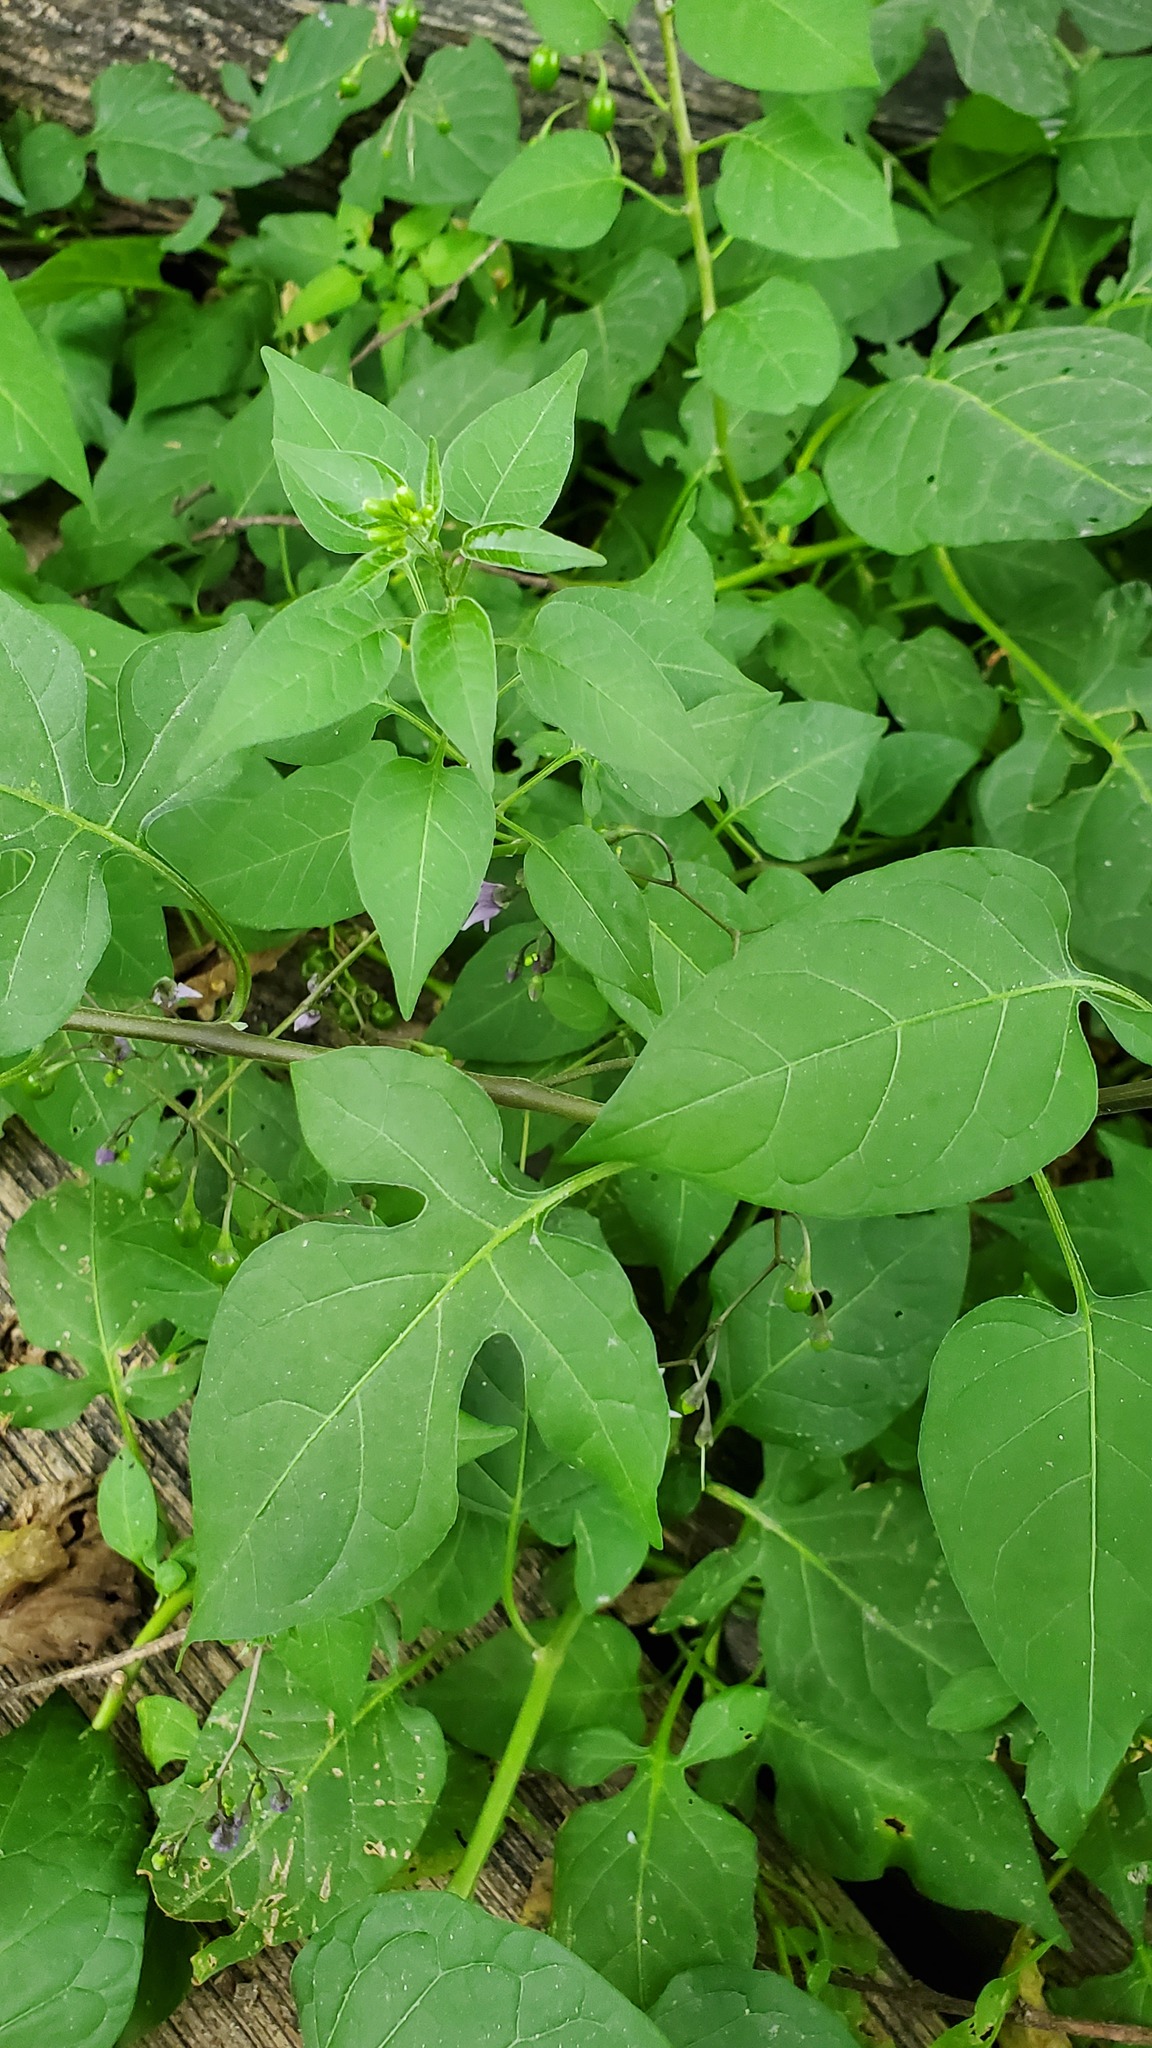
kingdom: Plantae
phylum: Tracheophyta
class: Magnoliopsida
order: Solanales
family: Solanaceae
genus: Solanum
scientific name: Solanum dulcamara
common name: Climbing nightshade
